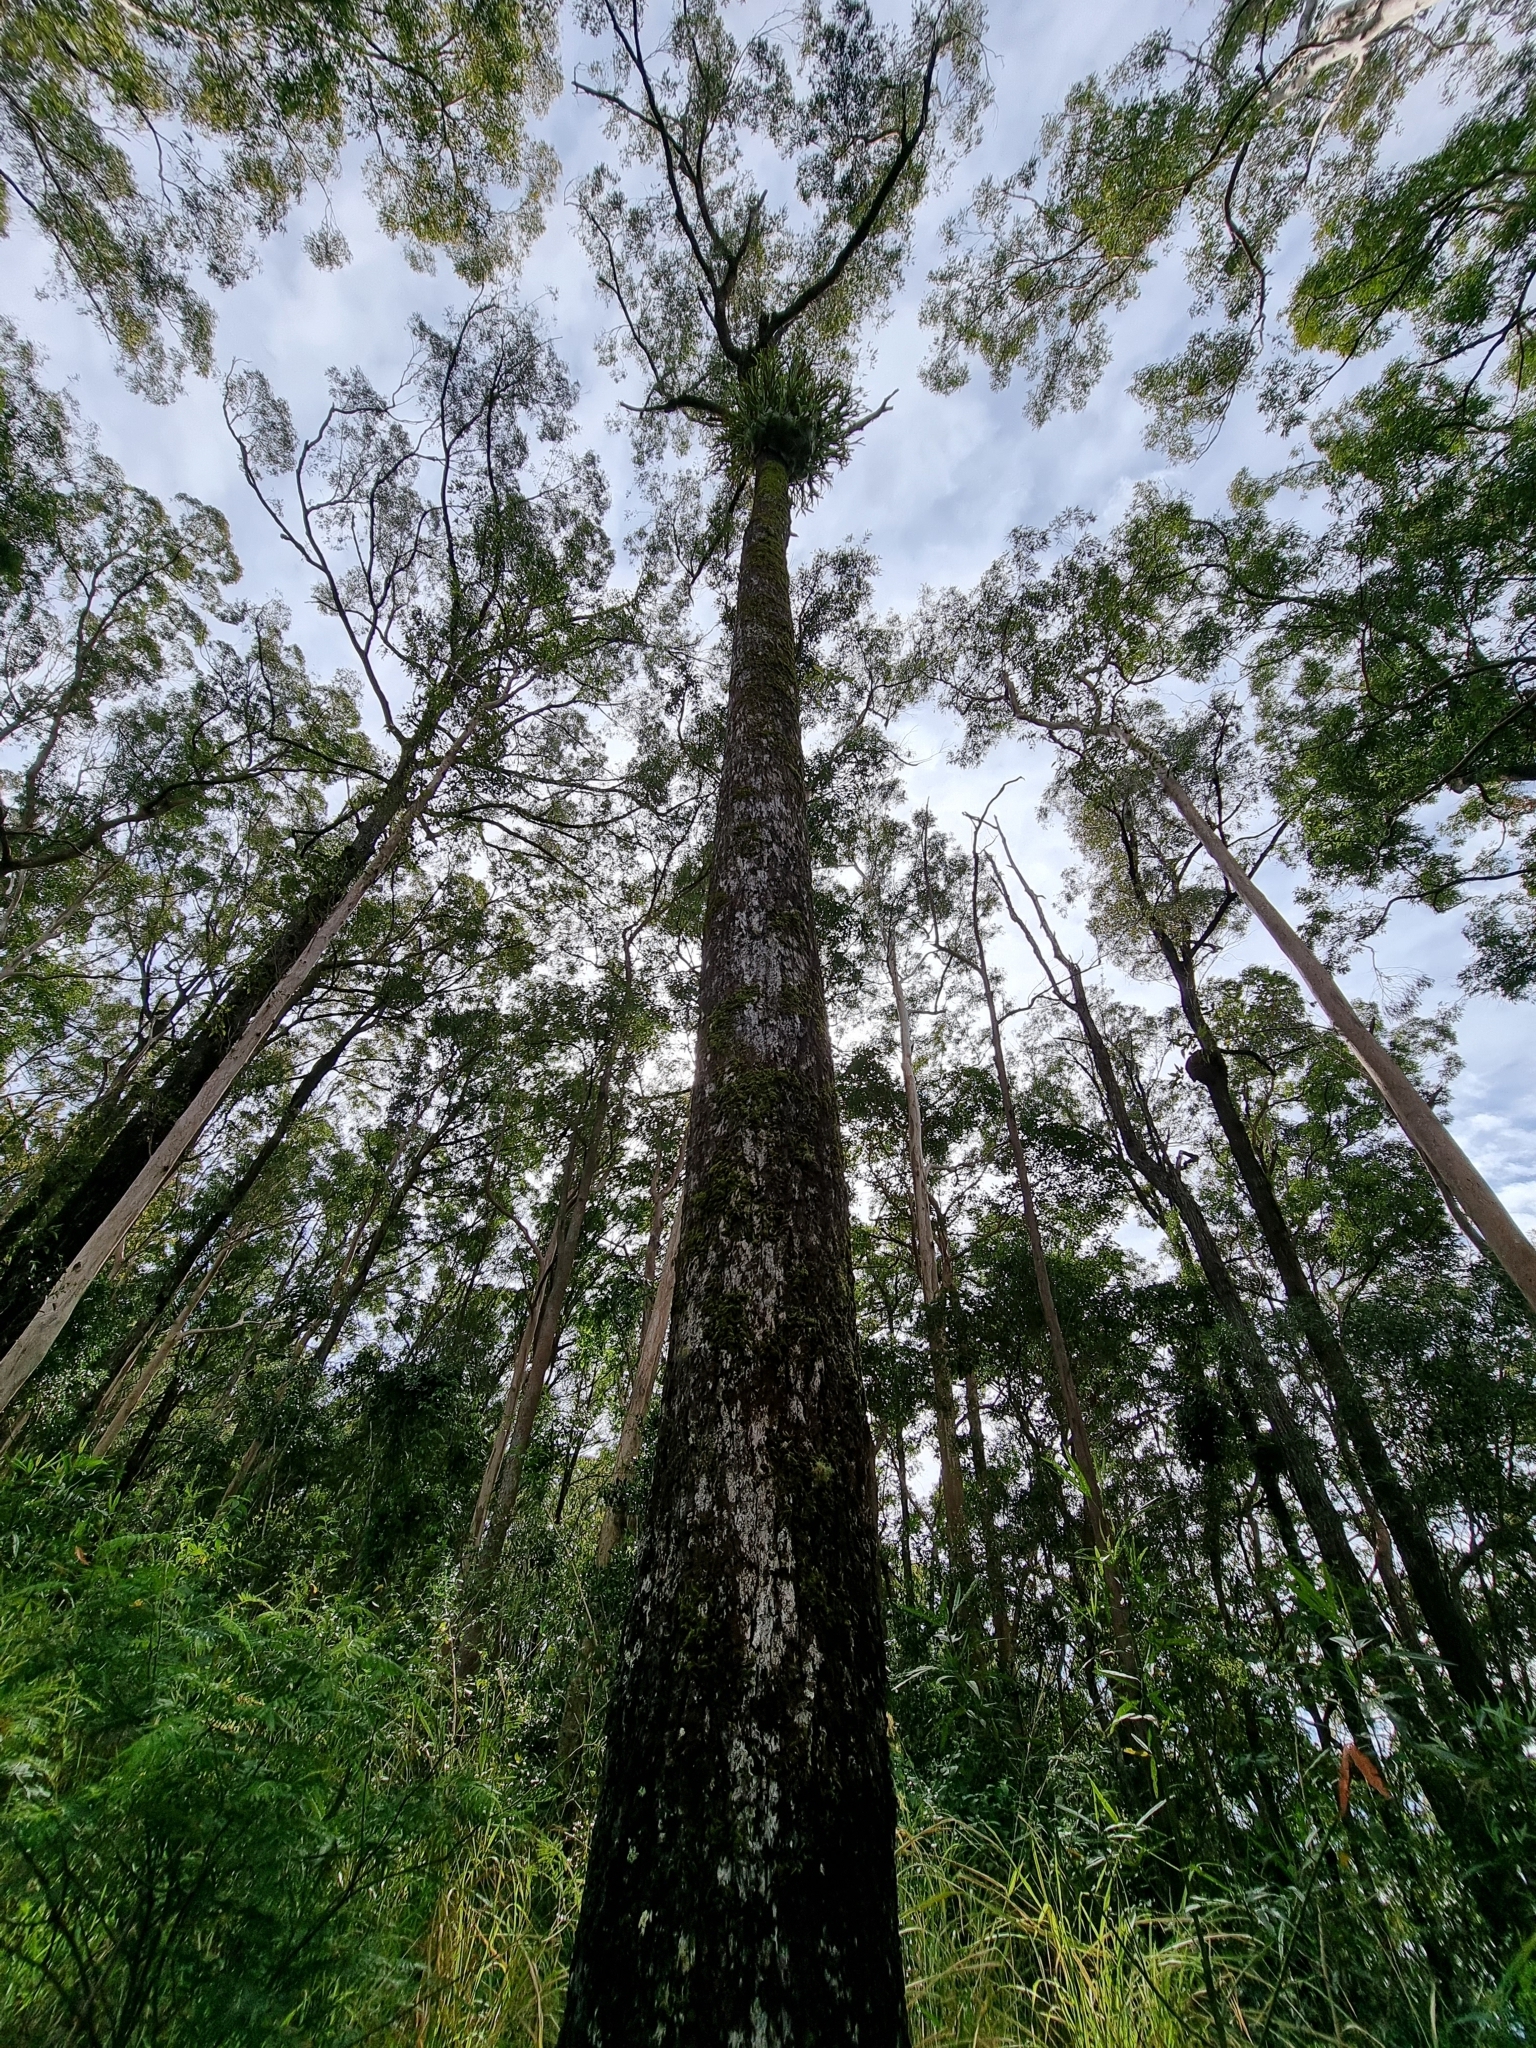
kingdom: Plantae
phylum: Tracheophyta
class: Polypodiopsida
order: Polypodiales
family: Polypodiaceae
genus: Platycerium
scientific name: Platycerium superbum
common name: Staghorn fern
